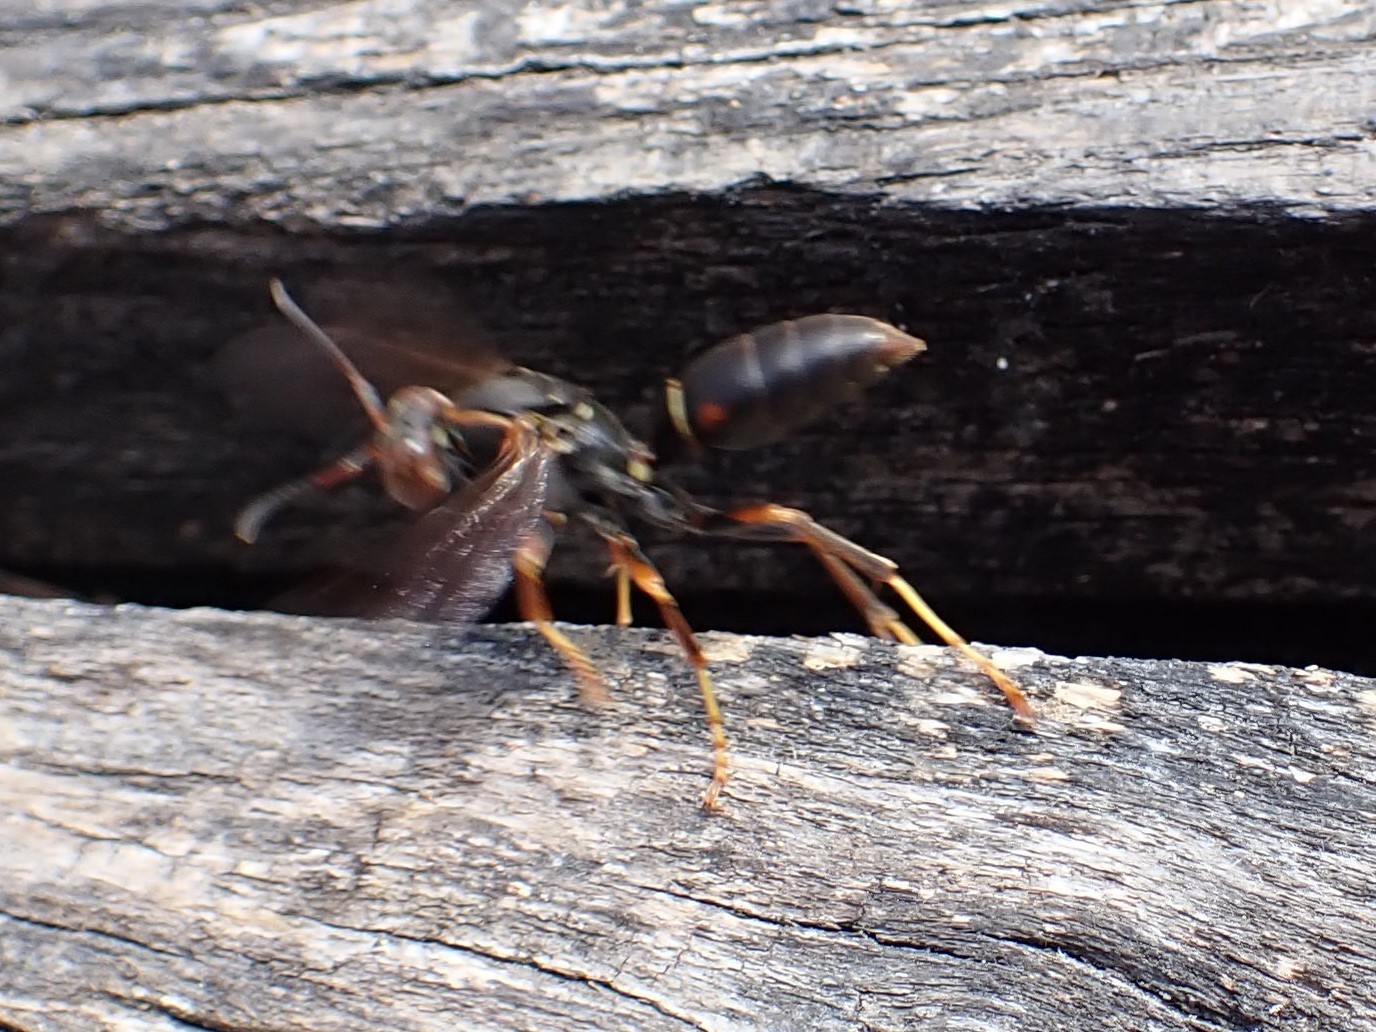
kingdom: Animalia
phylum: Arthropoda
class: Insecta
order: Hymenoptera
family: Eumenidae
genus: Polistes
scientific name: Polistes fuscatus
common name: Dark paper wasp
